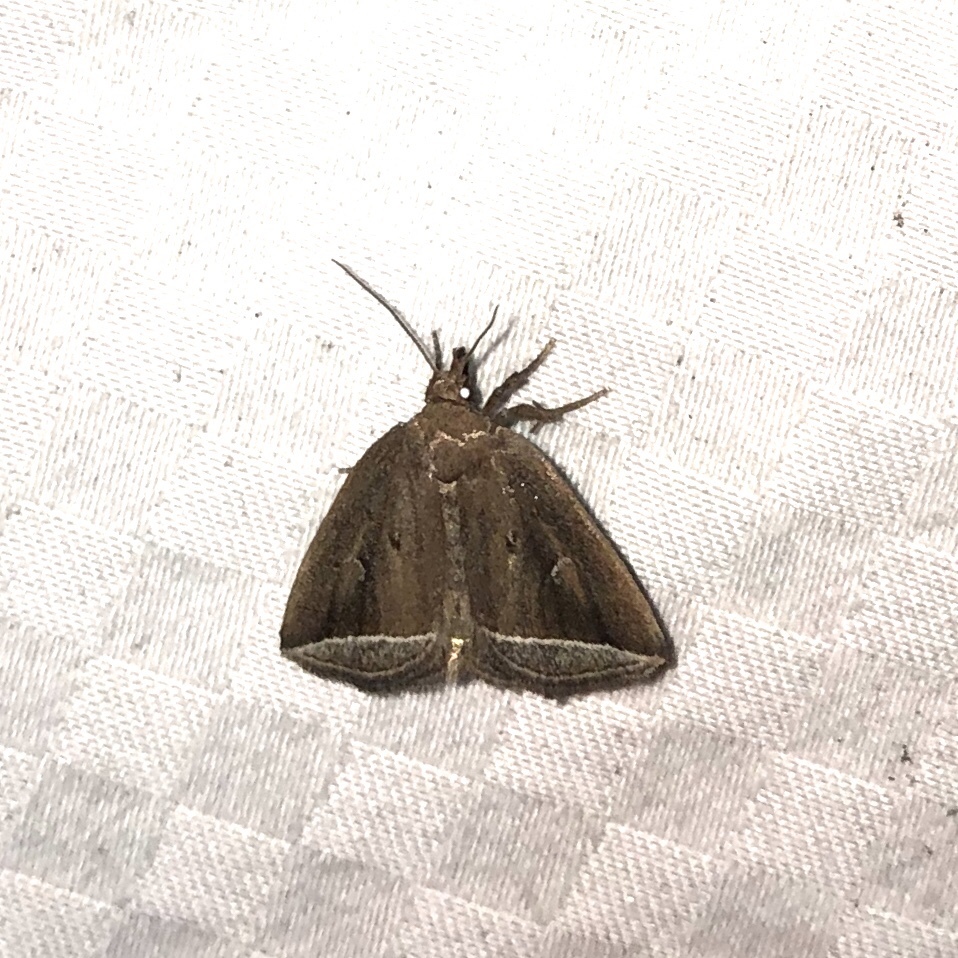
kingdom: Animalia
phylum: Arthropoda
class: Insecta
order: Lepidoptera
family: Erebidae
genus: Capis
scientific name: Capis curvata
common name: Curved halter moth
